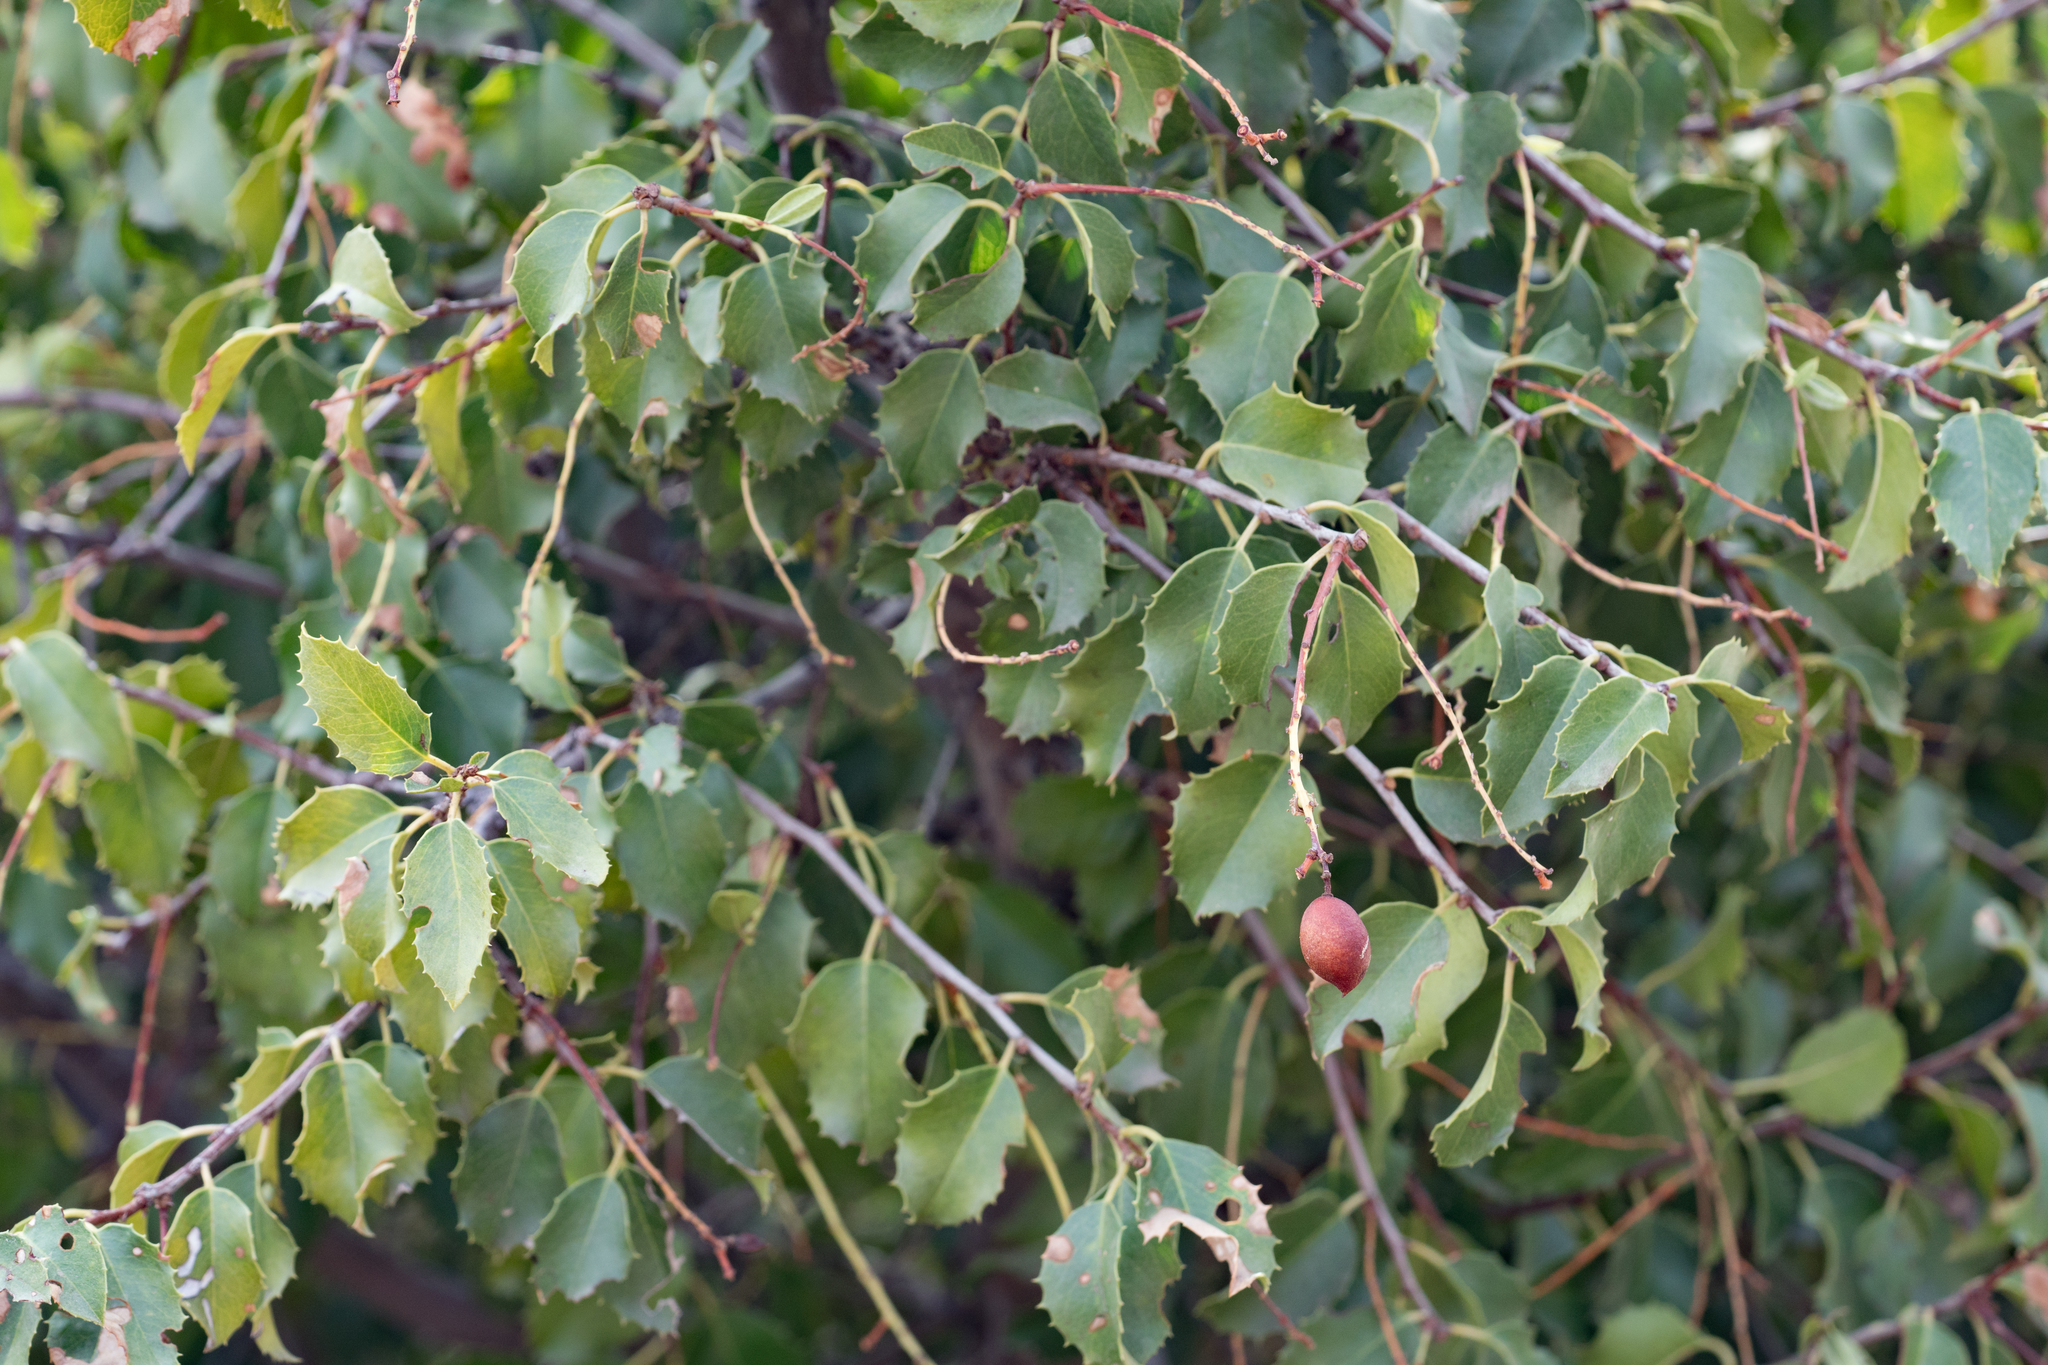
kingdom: Plantae
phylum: Tracheophyta
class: Magnoliopsida
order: Rosales
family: Rosaceae
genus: Prunus
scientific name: Prunus ilicifolia
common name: Hollyleaf cherry
